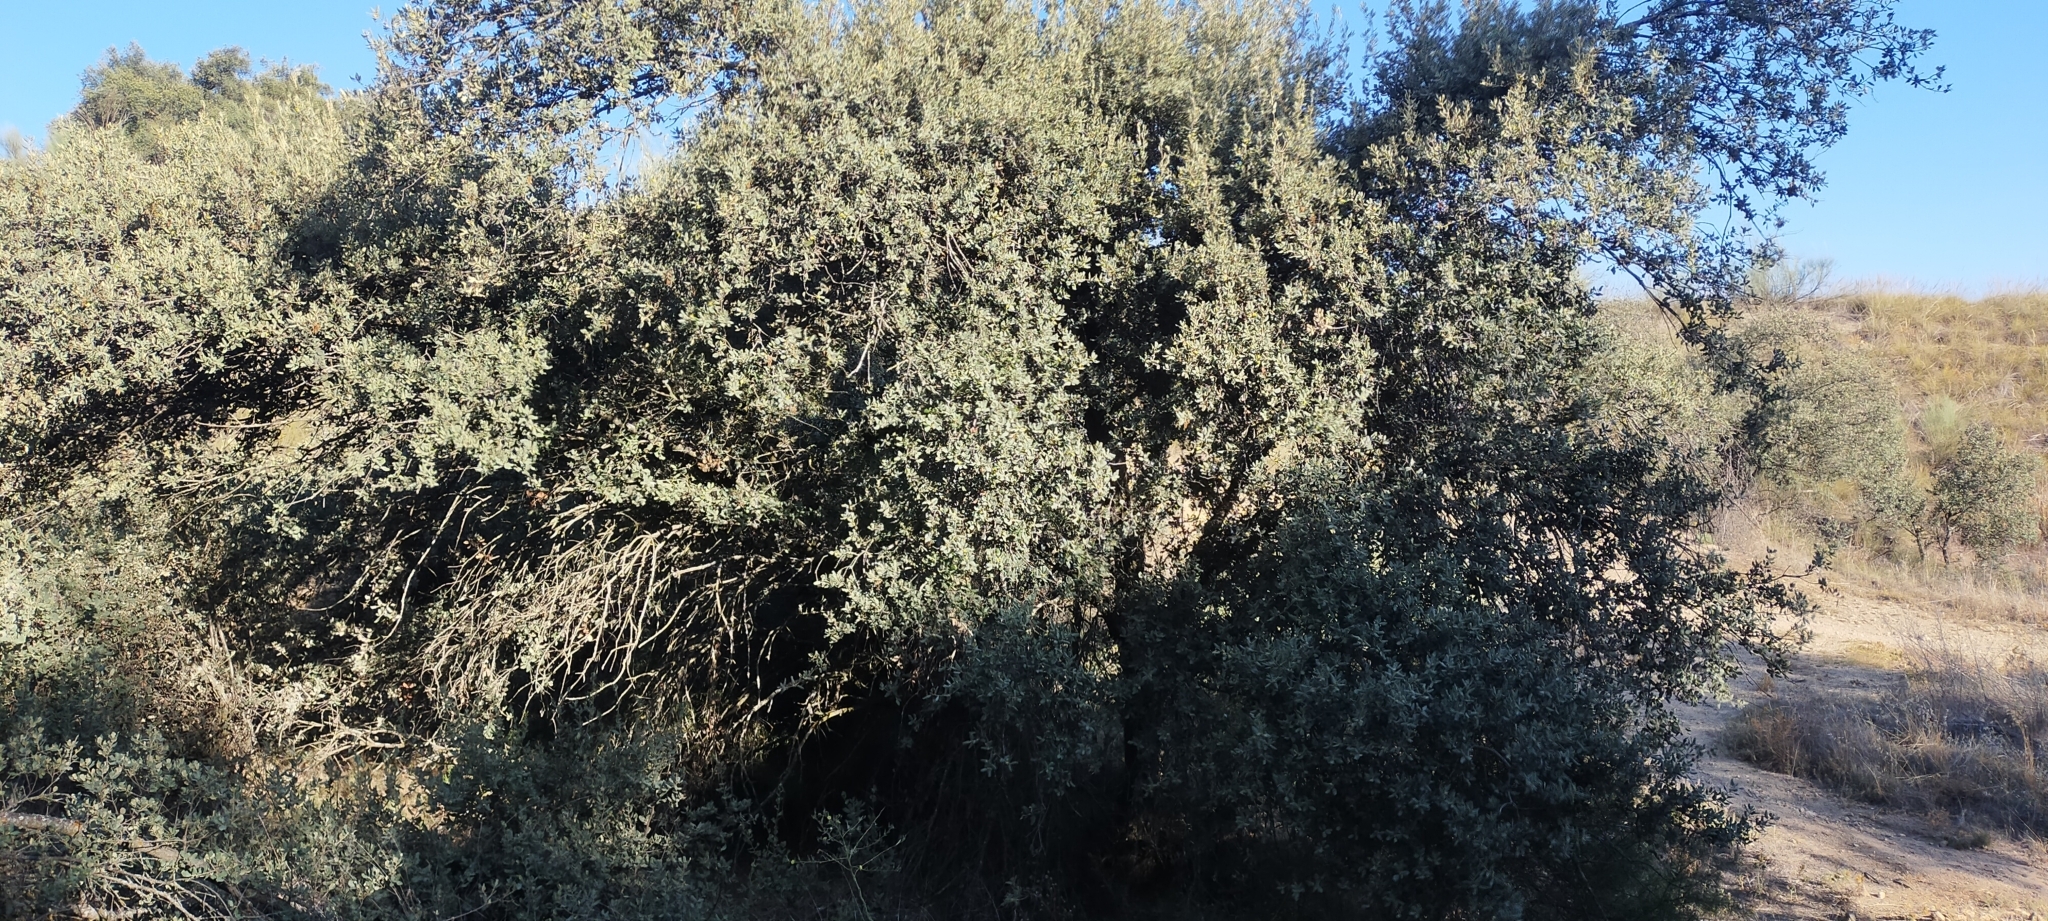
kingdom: Plantae
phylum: Tracheophyta
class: Magnoliopsida
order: Fagales
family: Fagaceae
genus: Quercus
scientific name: Quercus rotundifolia
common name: Holm oak
